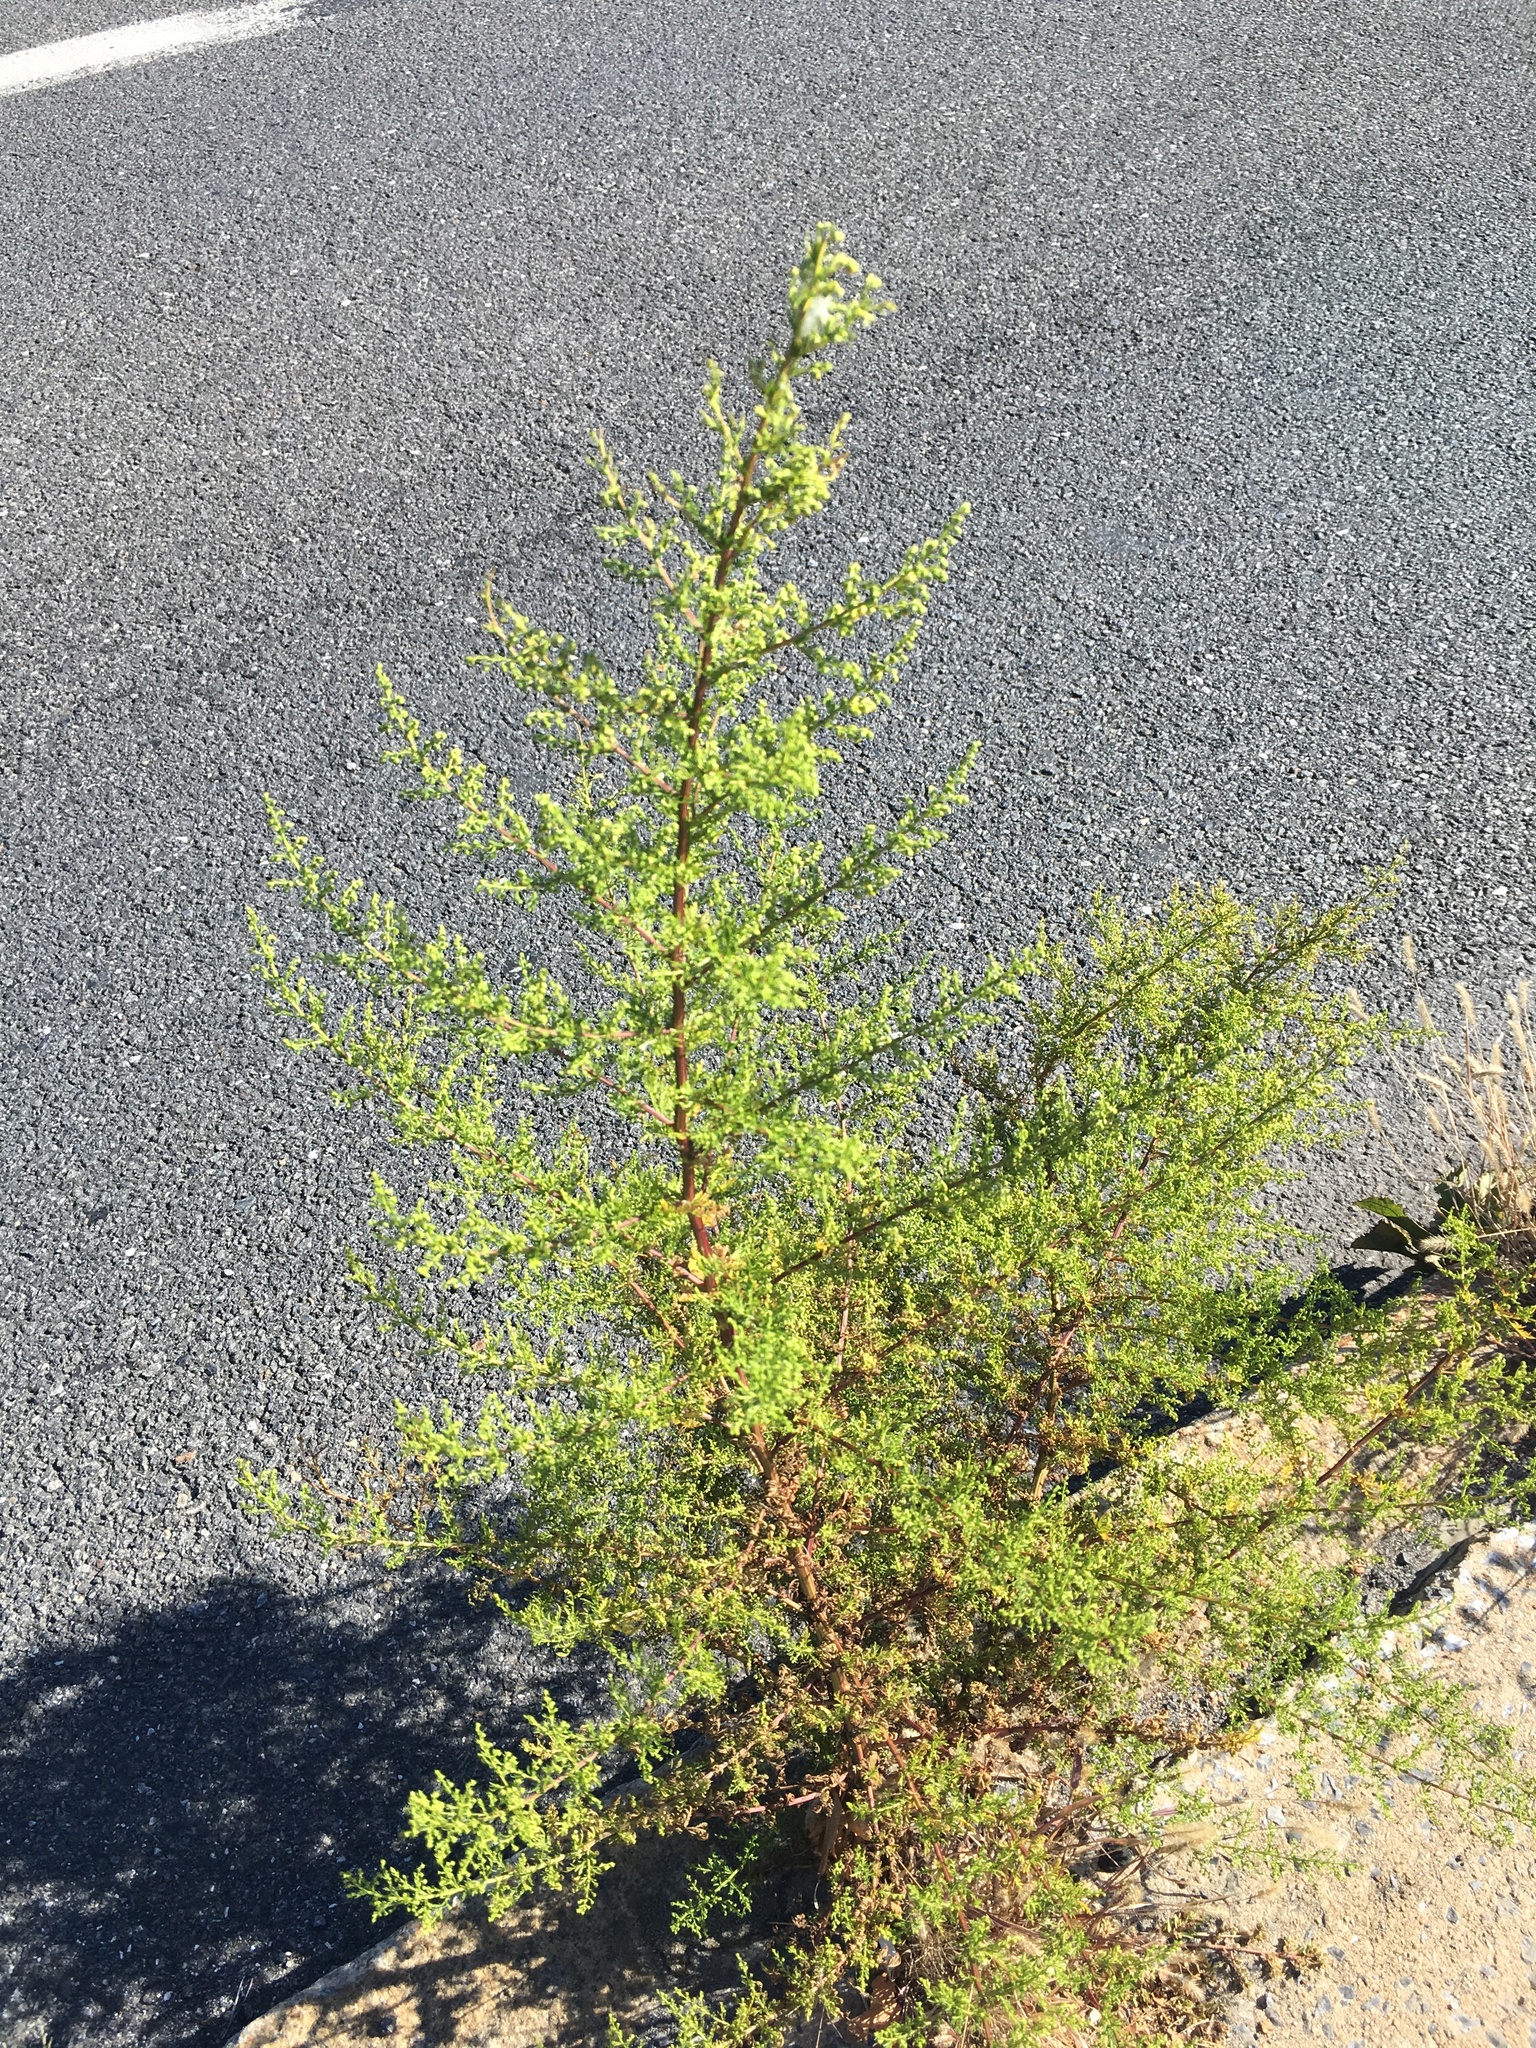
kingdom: Plantae
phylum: Tracheophyta
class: Magnoliopsida
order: Asterales
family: Asteraceae
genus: Artemisia
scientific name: Artemisia annua
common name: Sweet sagewort
